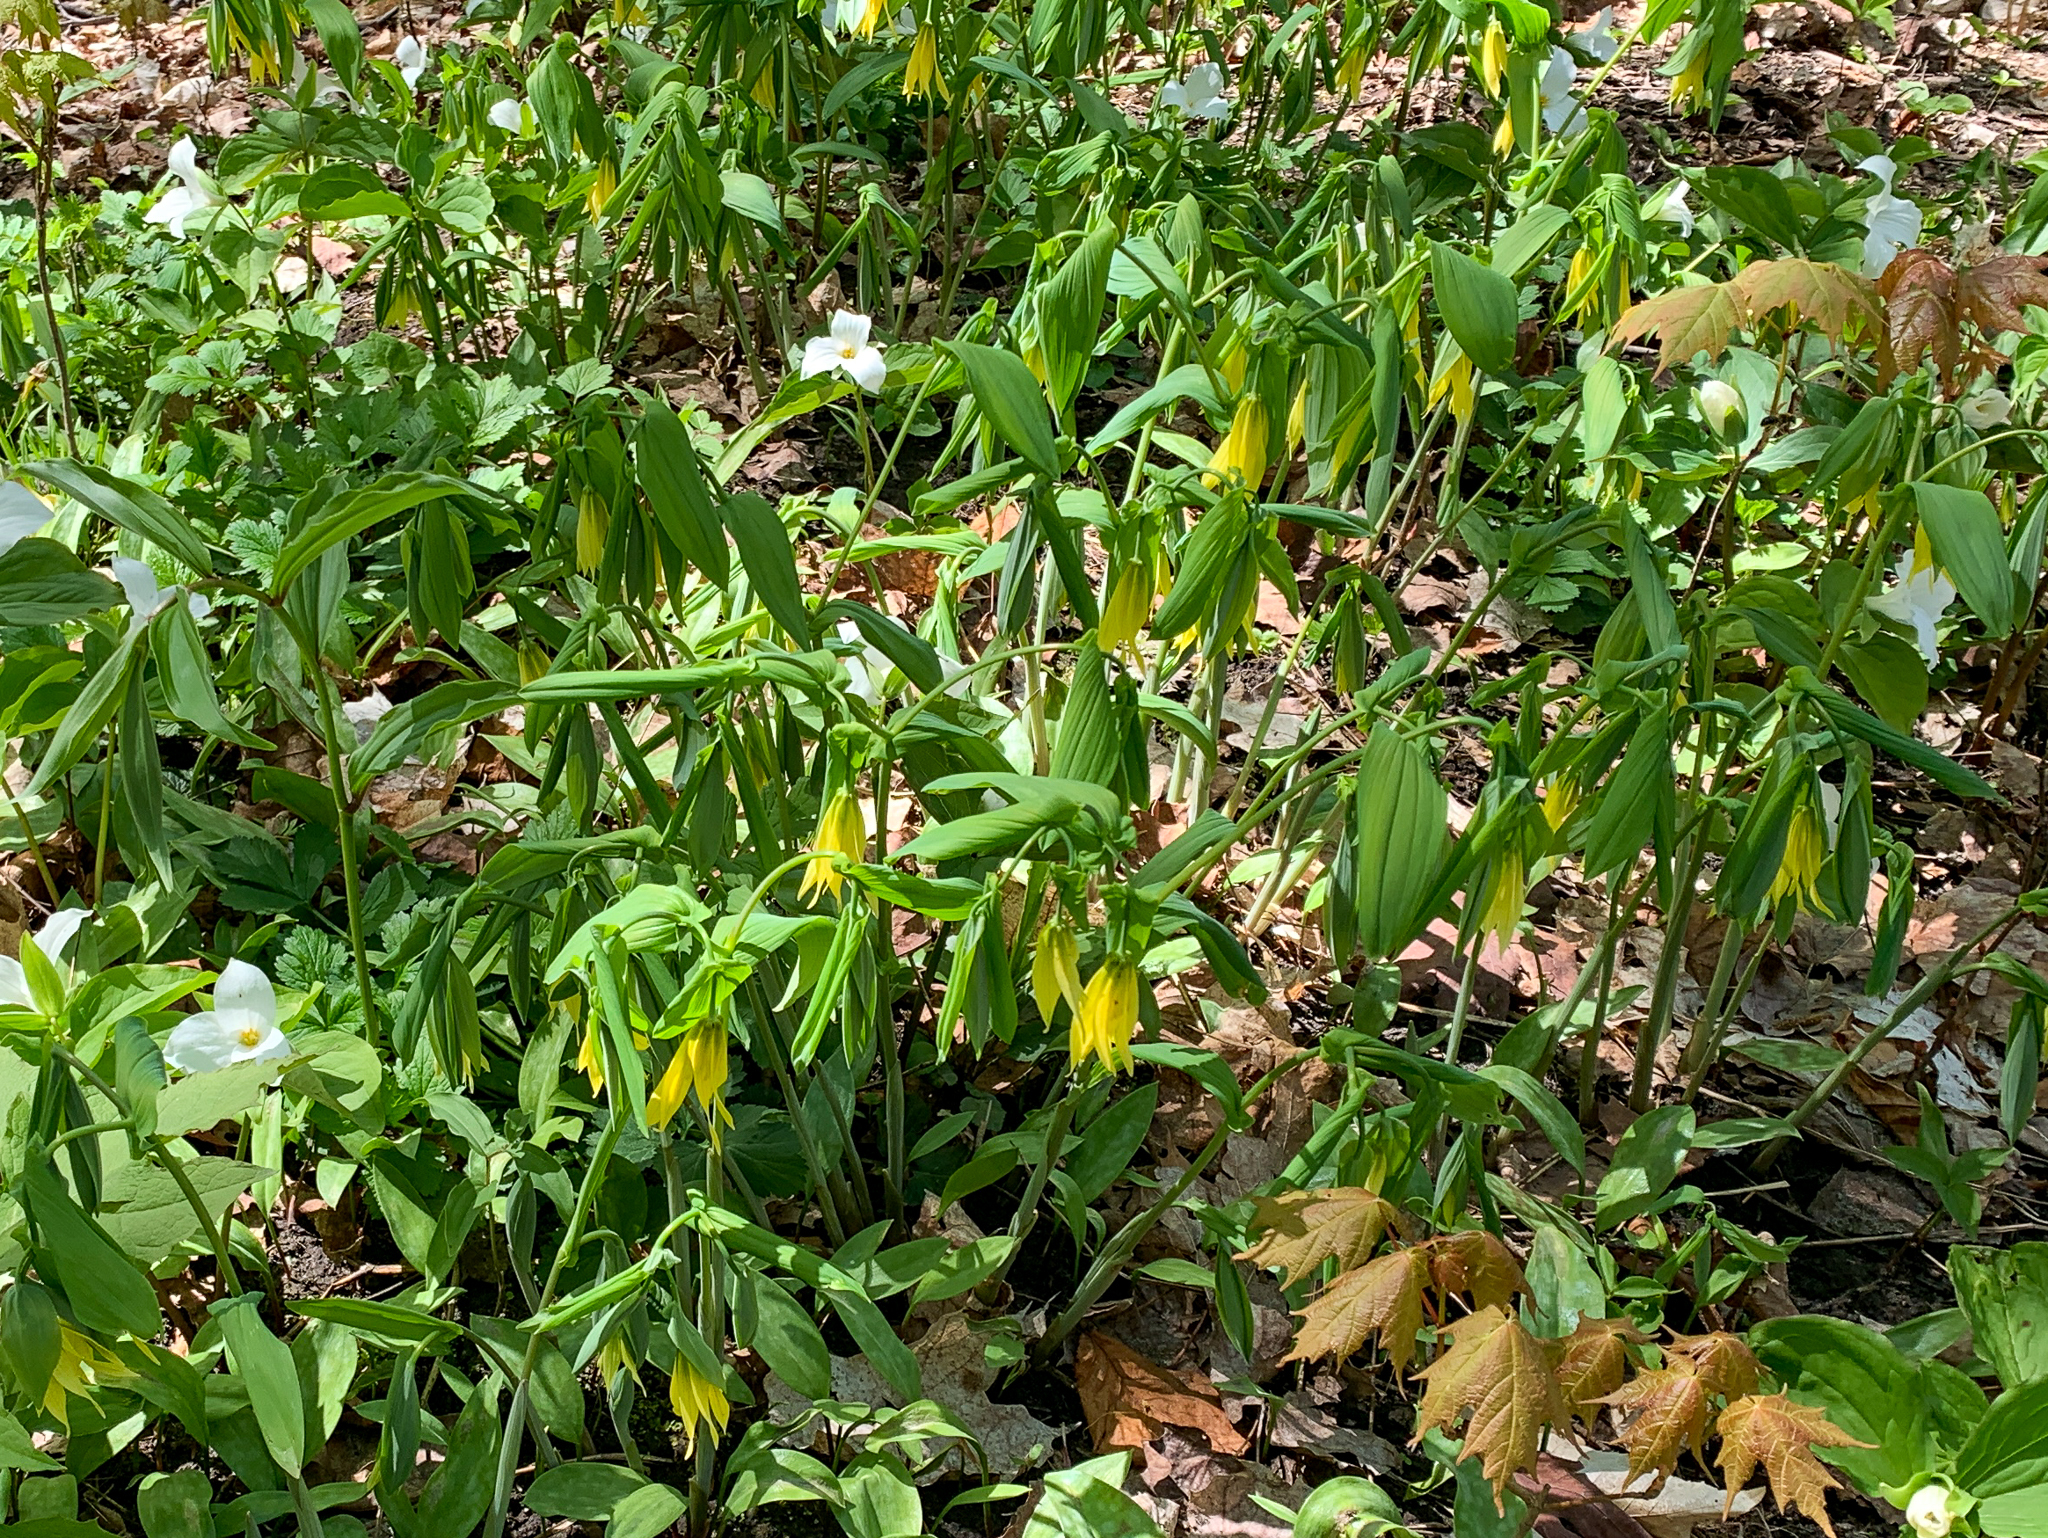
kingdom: Plantae
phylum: Tracheophyta
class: Liliopsida
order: Liliales
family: Colchicaceae
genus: Uvularia
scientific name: Uvularia grandiflora
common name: Bellwort
